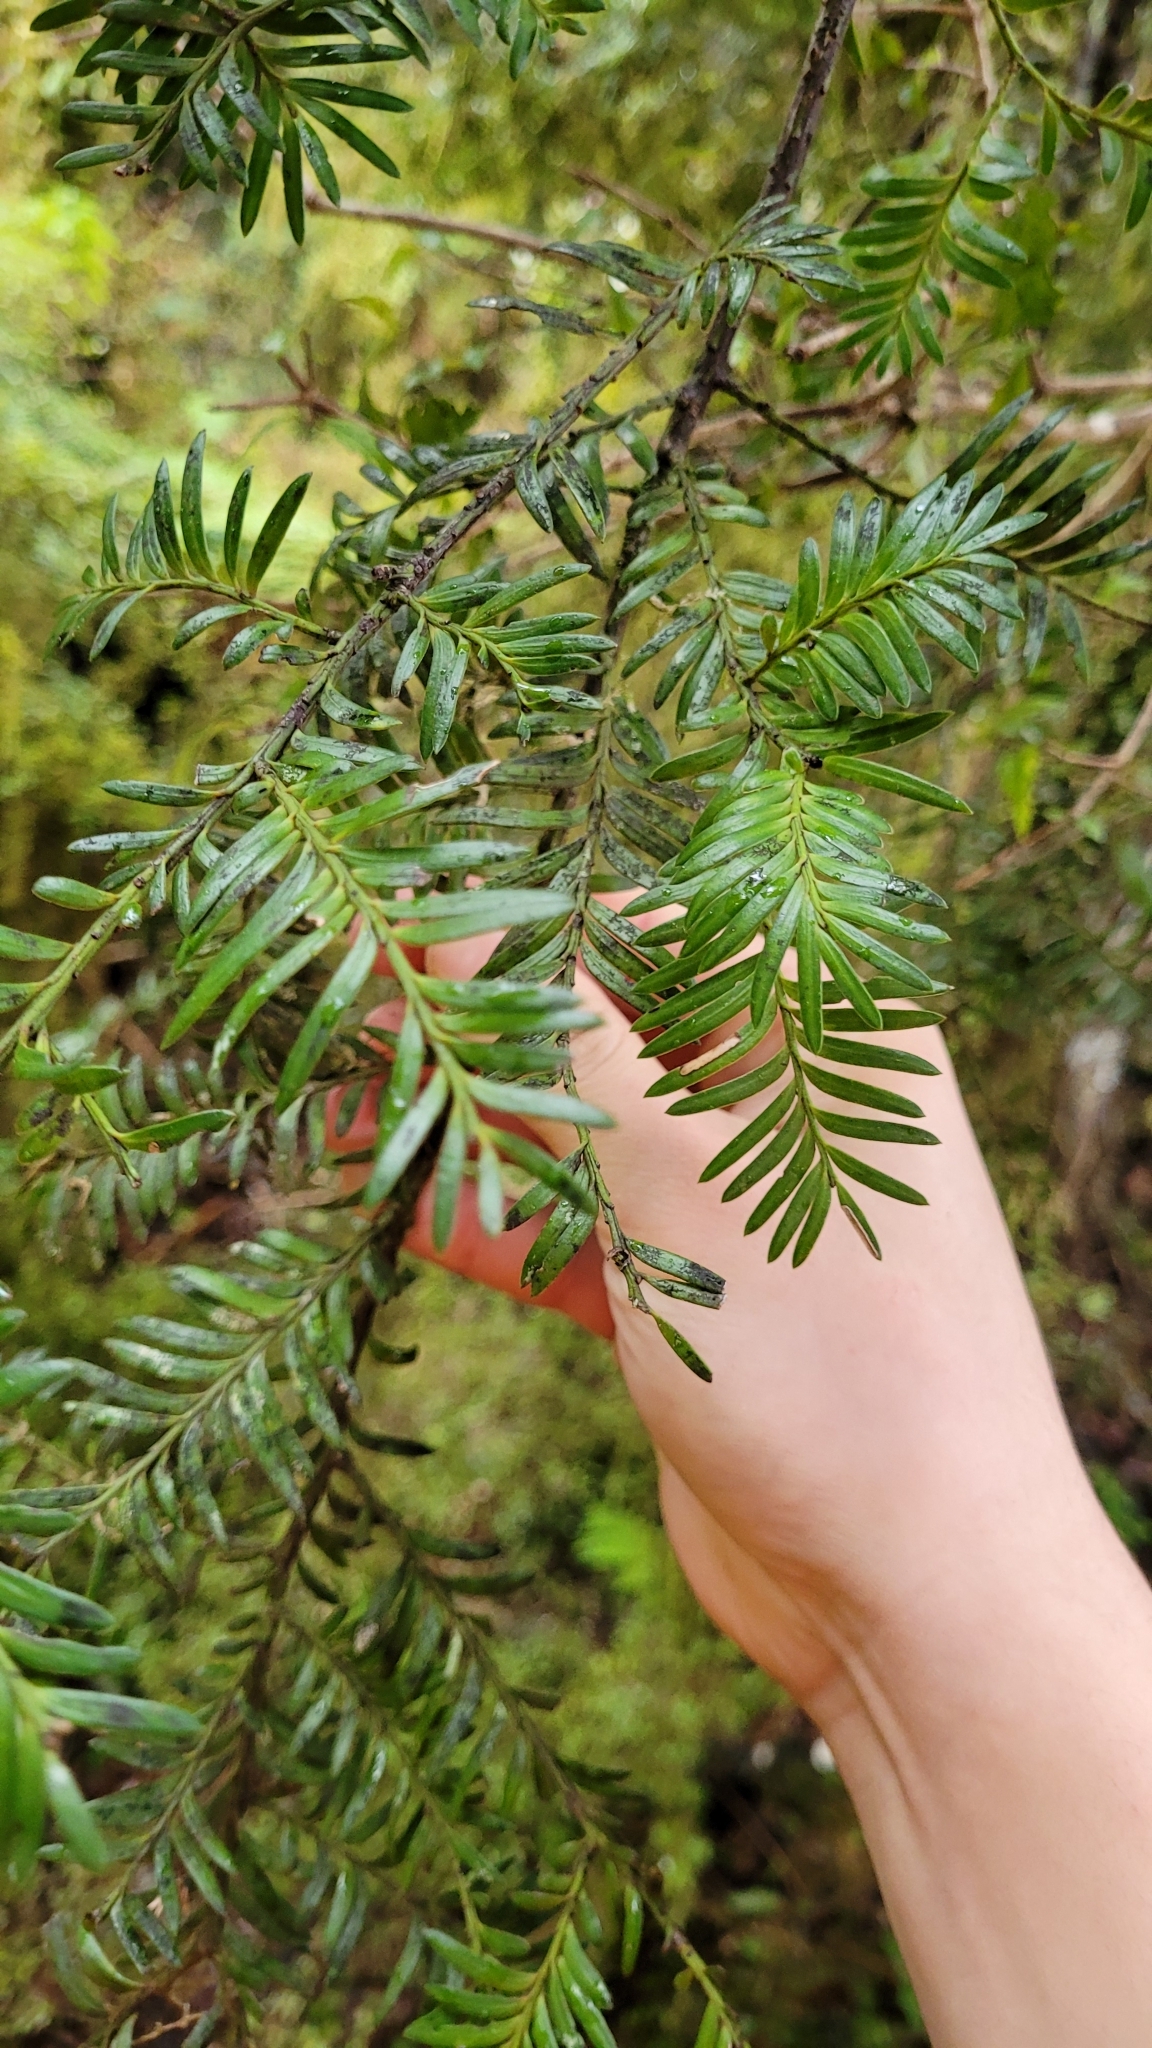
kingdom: Plantae
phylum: Tracheophyta
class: Pinopsida
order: Pinales
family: Podocarpaceae
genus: Prumnopitys
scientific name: Prumnopitys ferruginea
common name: Brown pine
